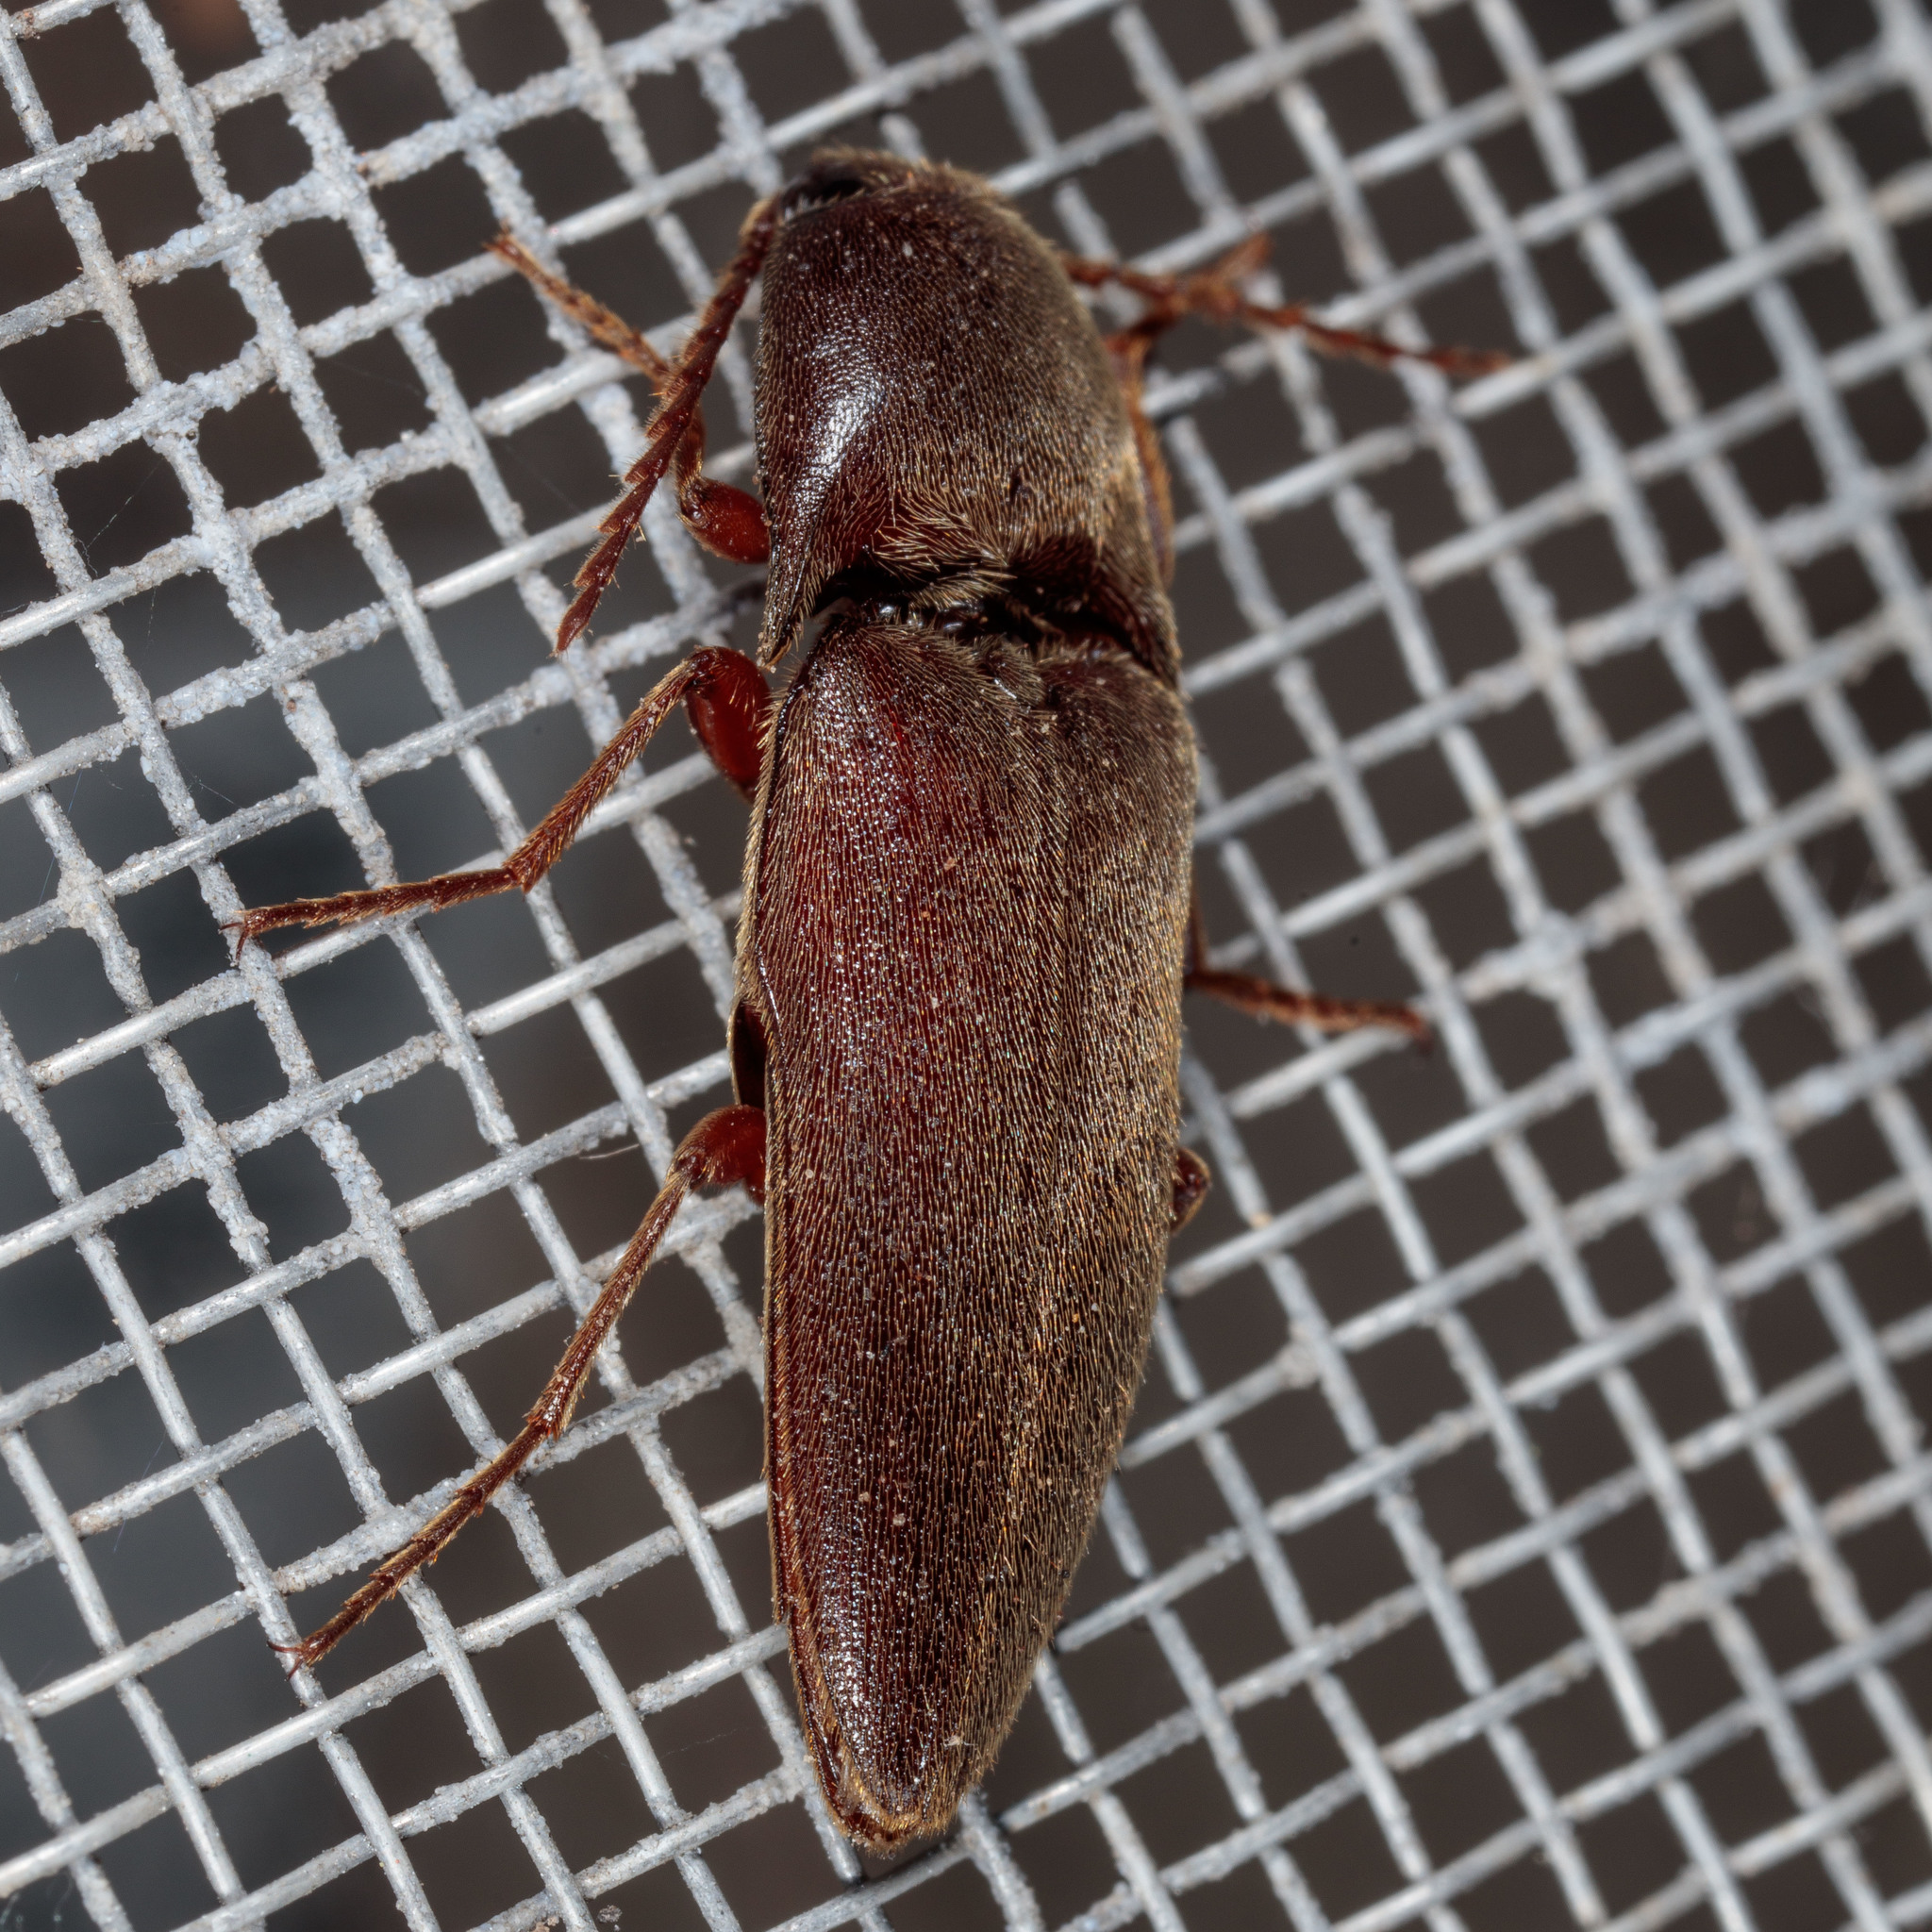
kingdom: Animalia
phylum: Arthropoda
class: Insecta
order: Coleoptera
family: Elateridae
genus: Diplostethus
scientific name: Diplostethus
